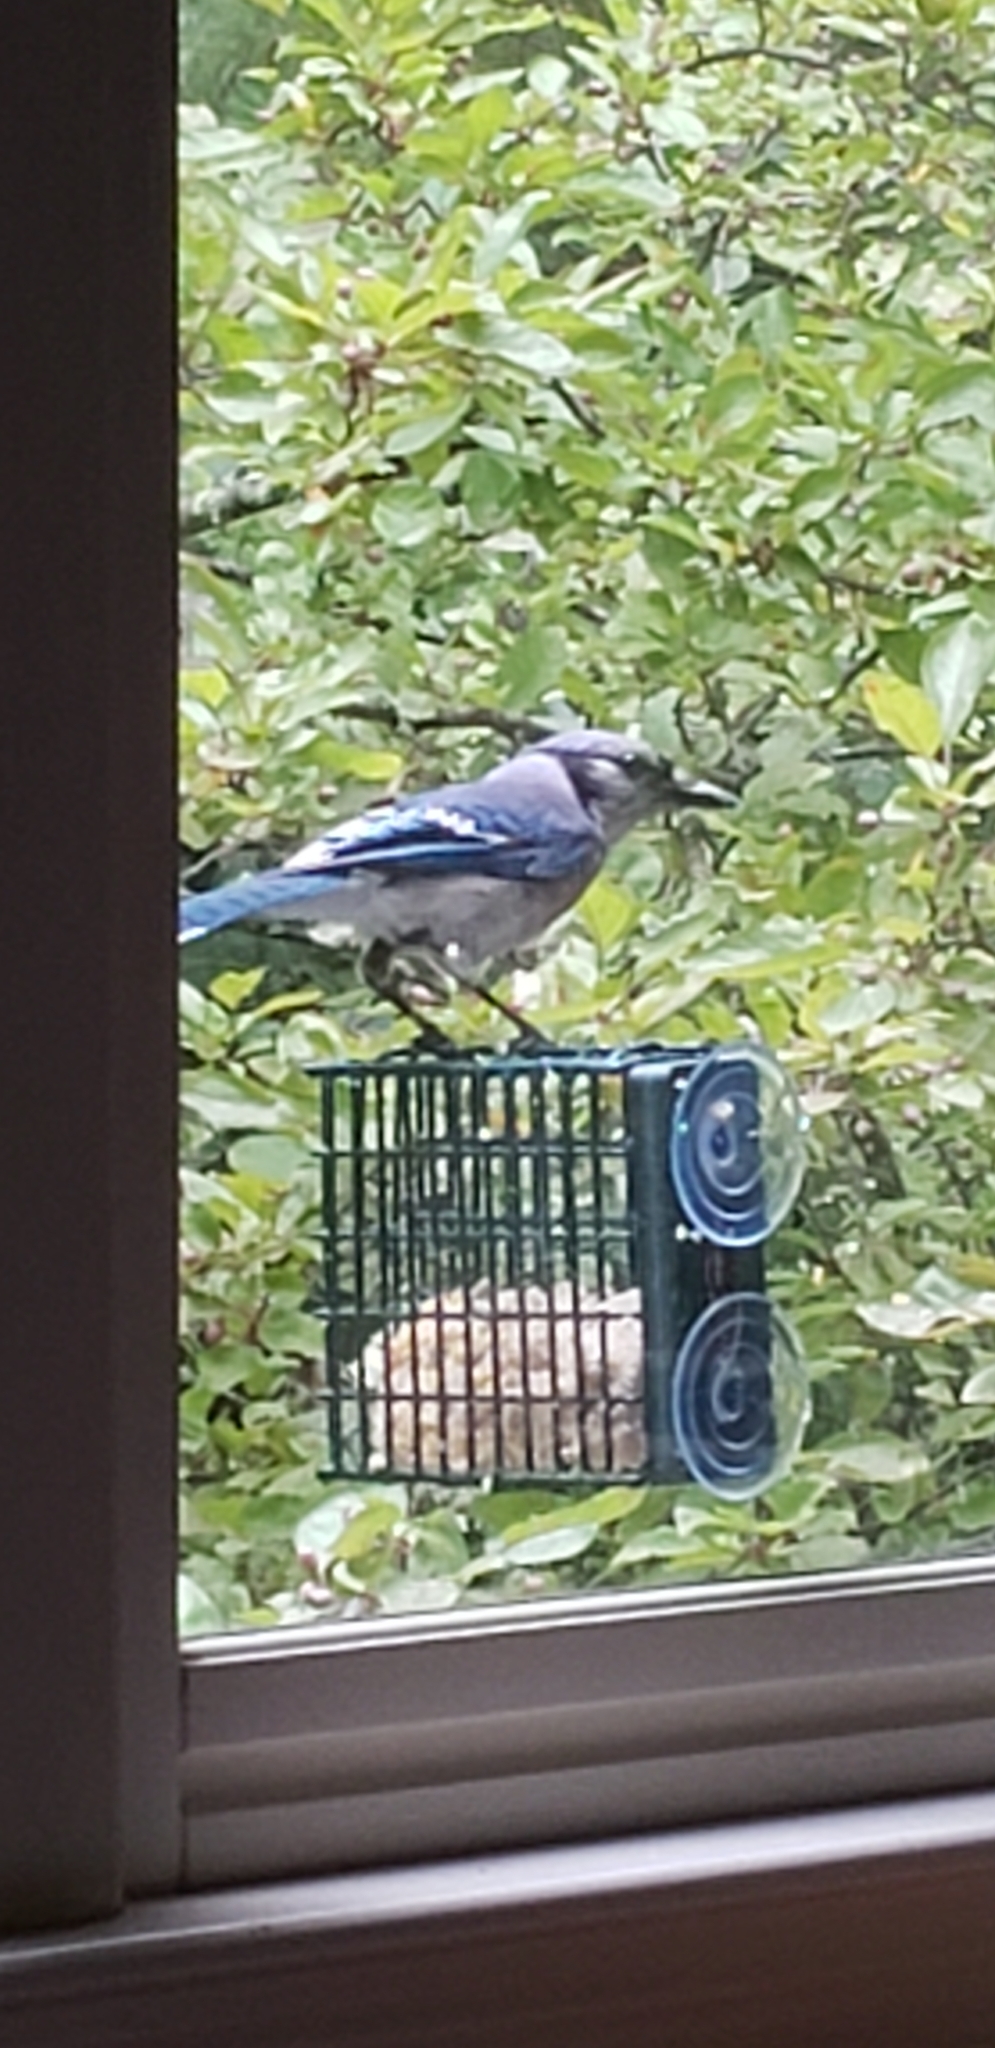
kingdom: Animalia
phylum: Chordata
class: Aves
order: Passeriformes
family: Corvidae
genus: Cyanocitta
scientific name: Cyanocitta cristata
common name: Blue jay
